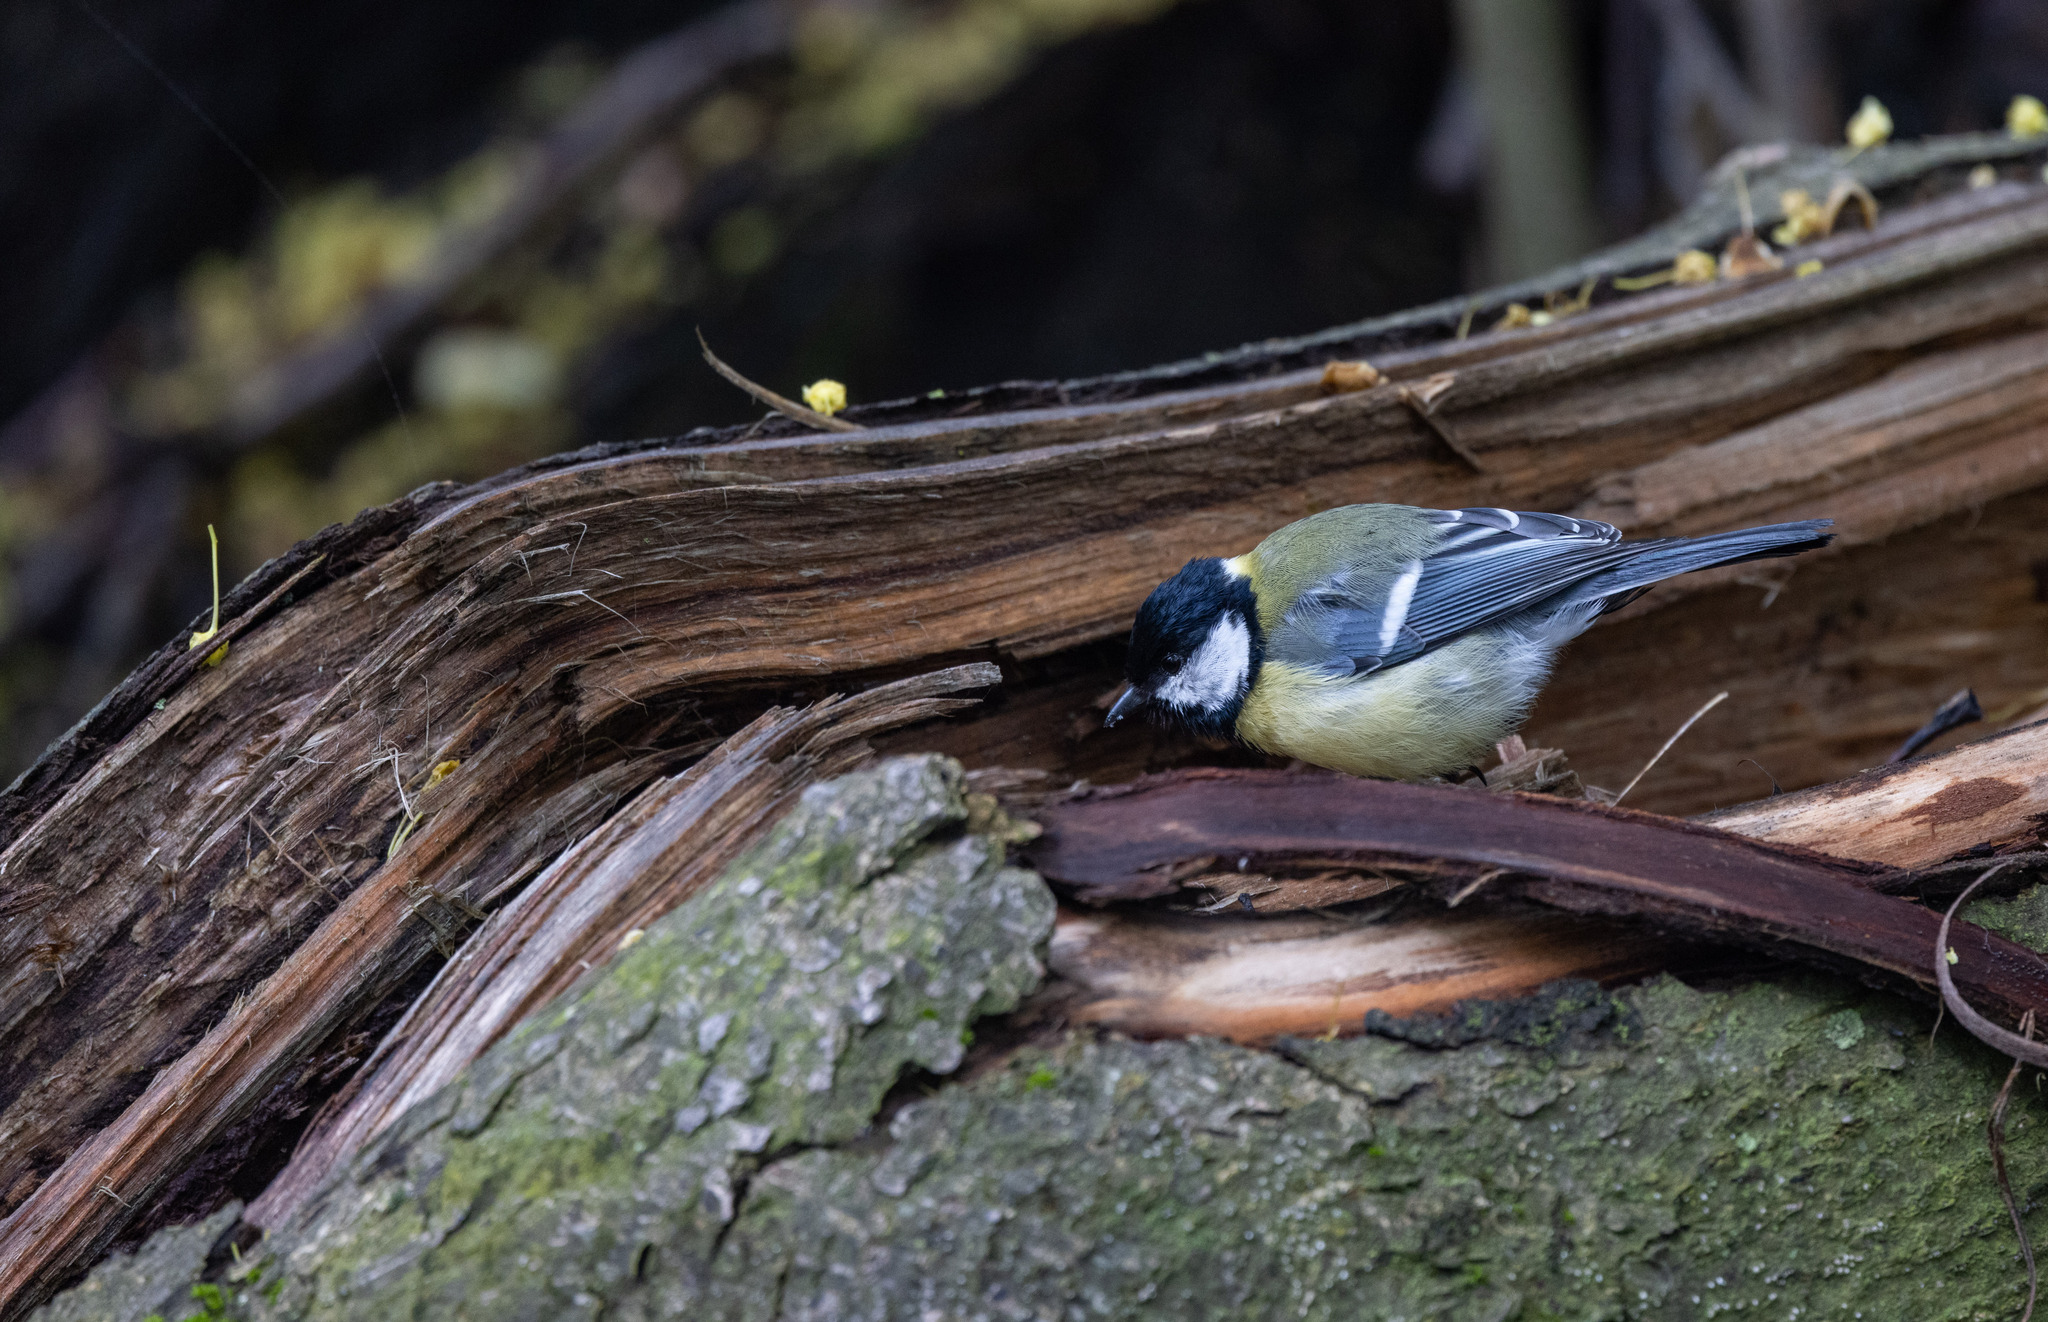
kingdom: Animalia
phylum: Chordata
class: Aves
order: Passeriformes
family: Paridae
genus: Parus
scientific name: Parus major
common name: Great tit
